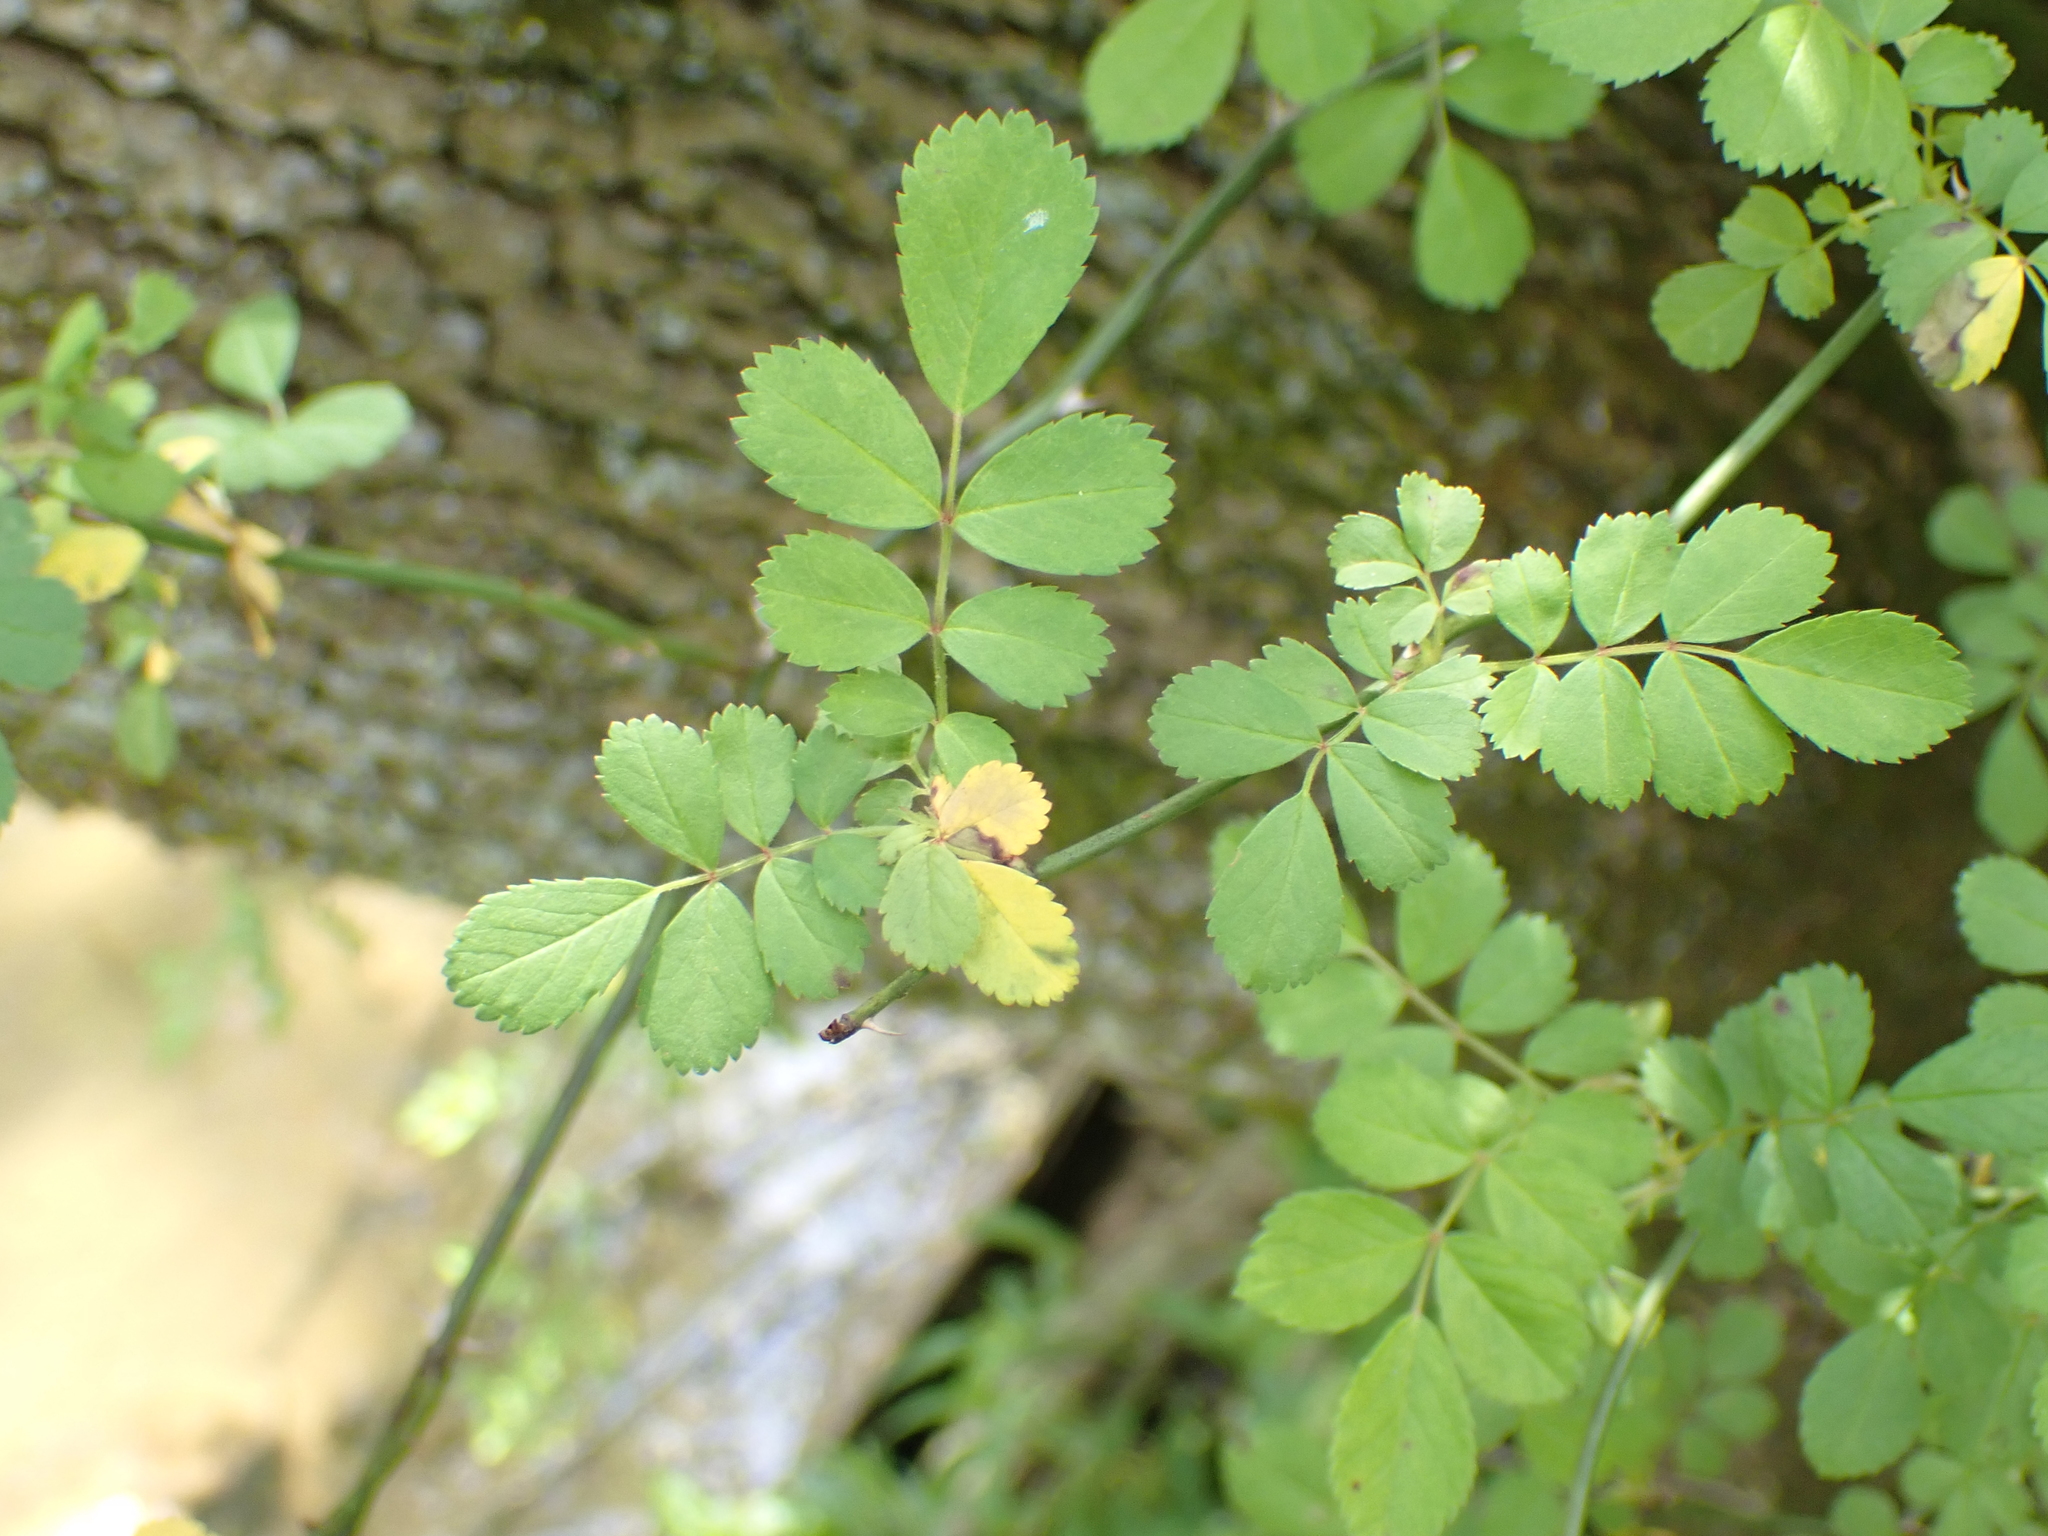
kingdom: Plantae
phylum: Tracheophyta
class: Magnoliopsida
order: Rosales
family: Rosaceae
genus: Rosa
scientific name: Rosa multiflora
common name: Multiflora rose
